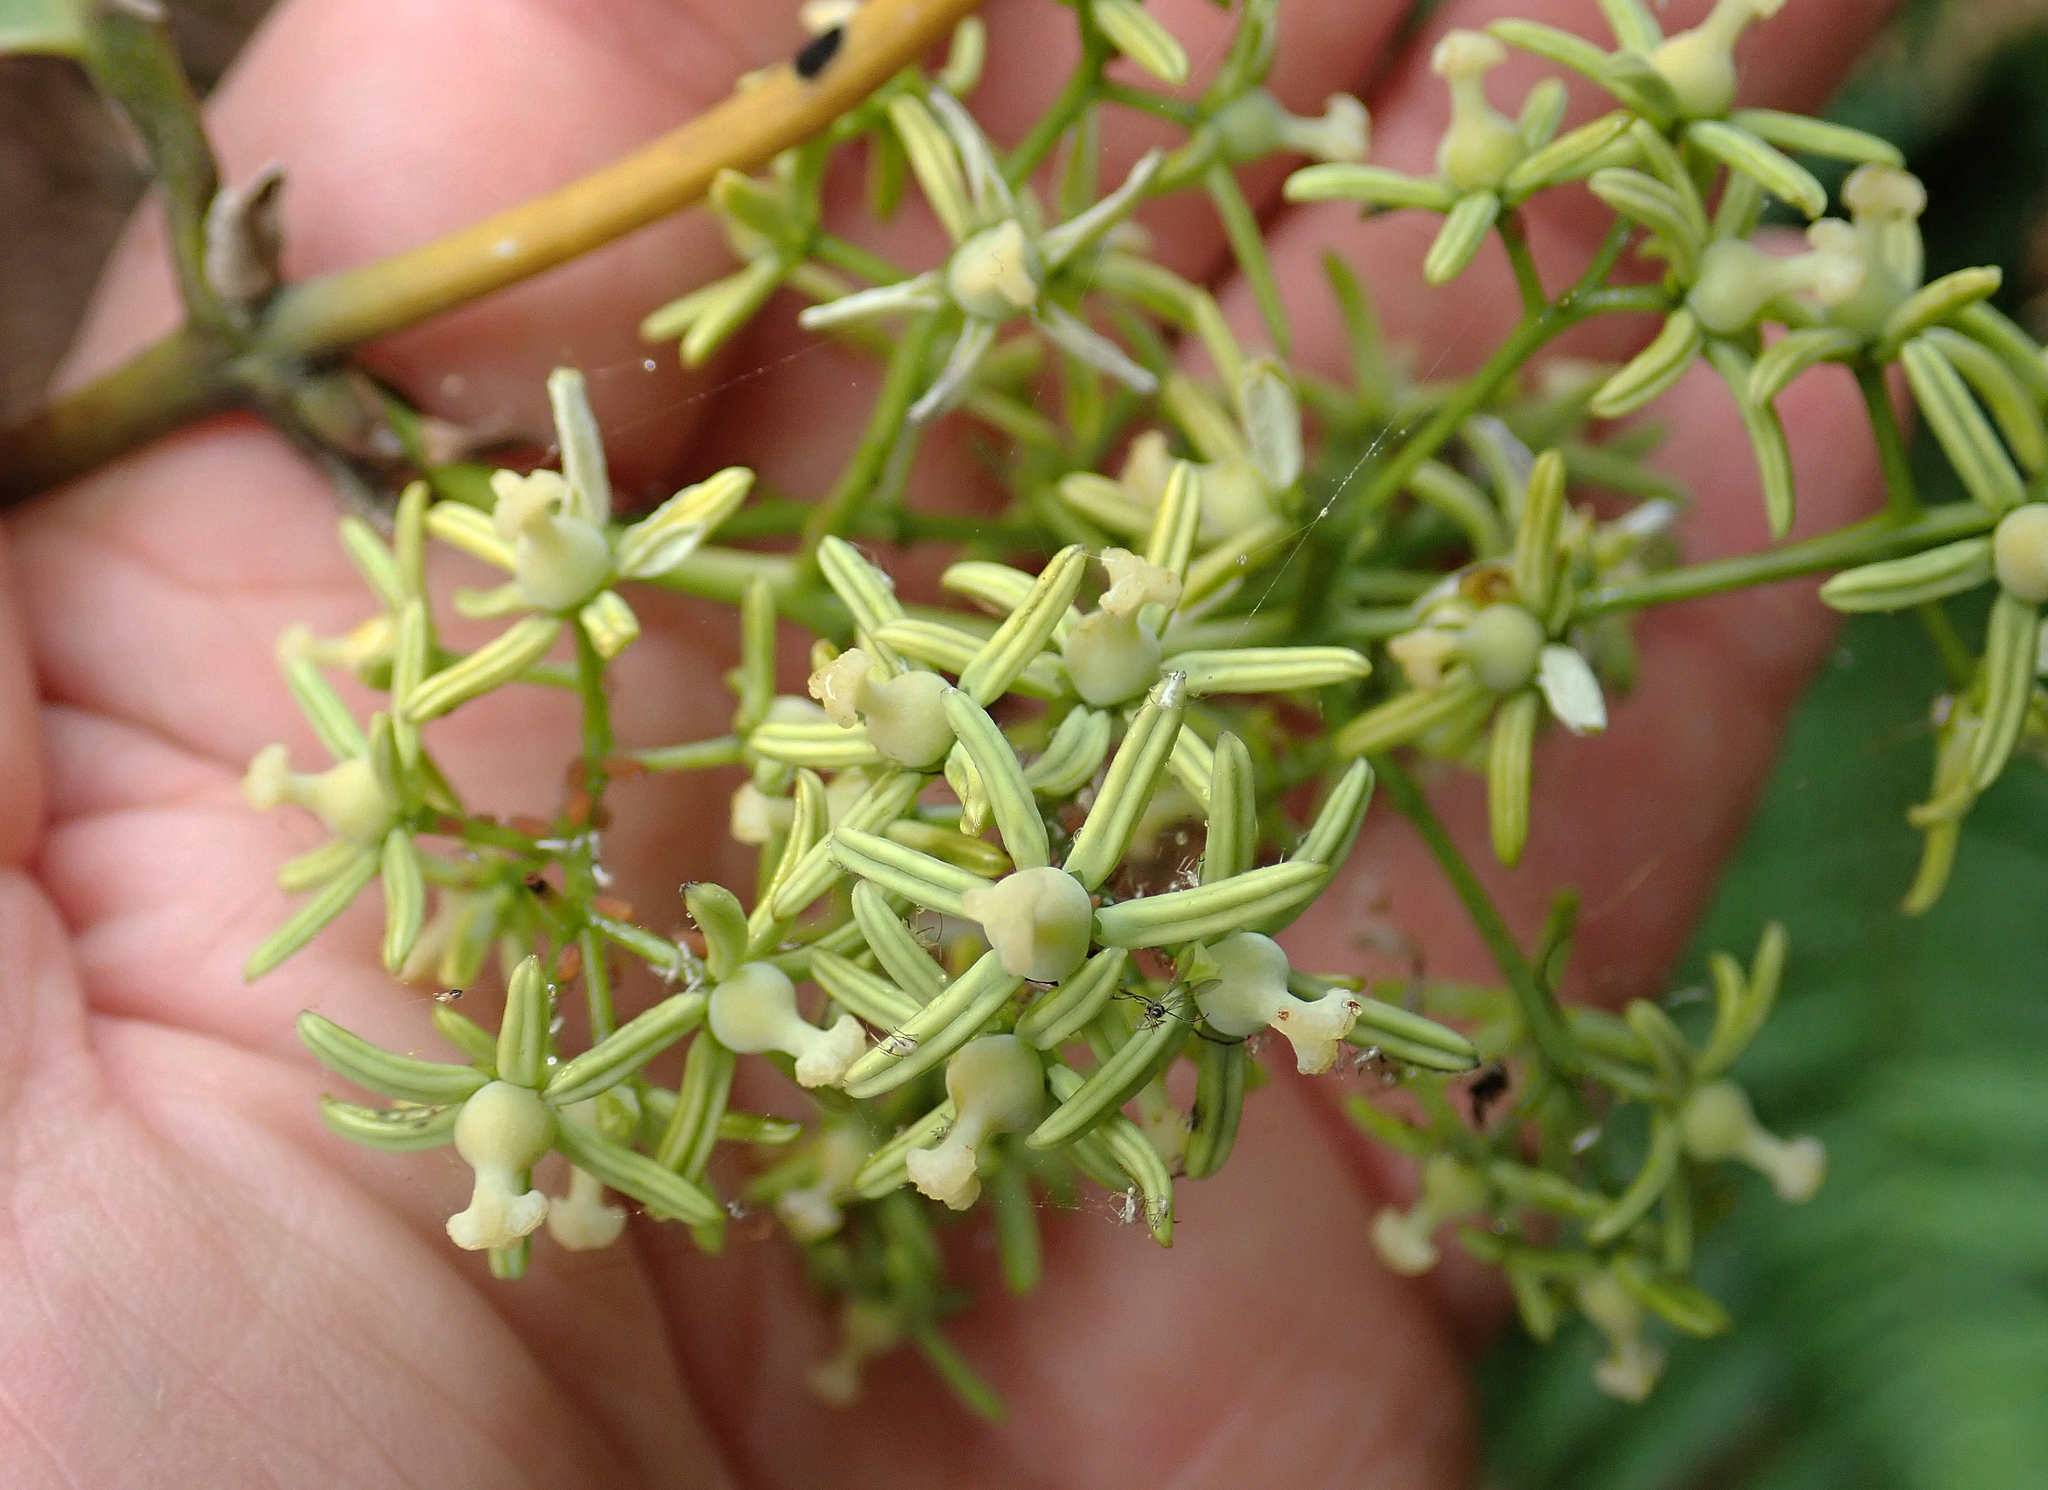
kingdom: Plantae
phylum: Tracheophyta
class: Liliopsida
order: Liliales
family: Ripogonaceae
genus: Ripogonum
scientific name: Ripogonum scandens
